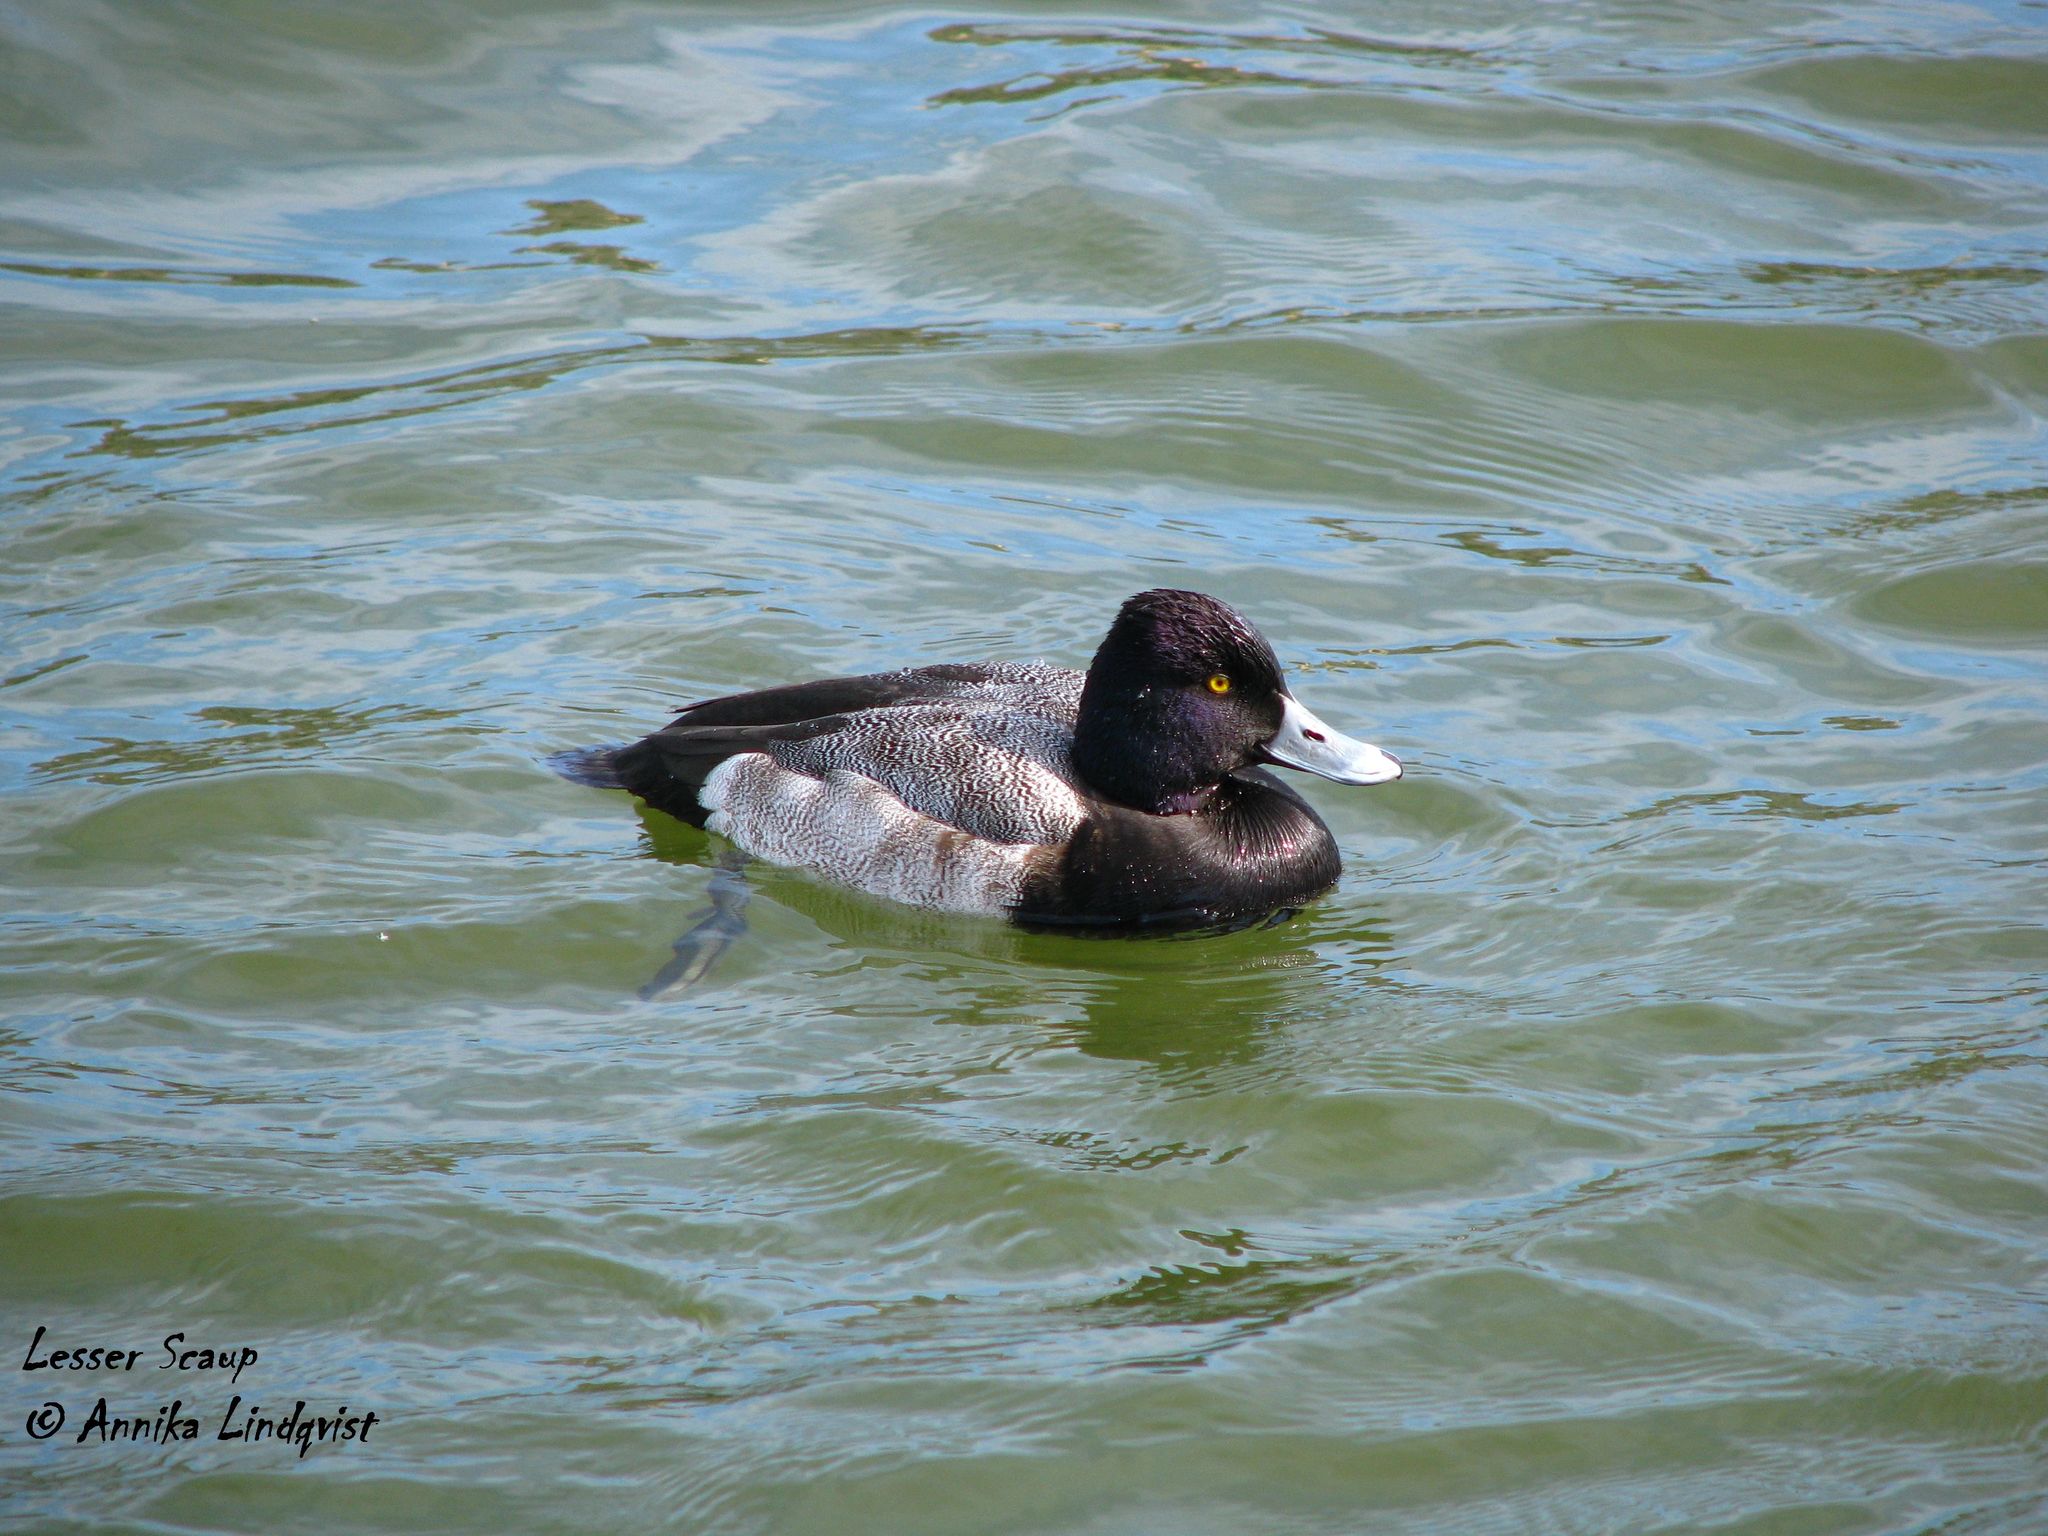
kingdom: Animalia
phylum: Chordata
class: Aves
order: Anseriformes
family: Anatidae
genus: Aythya
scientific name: Aythya affinis
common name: Lesser scaup
